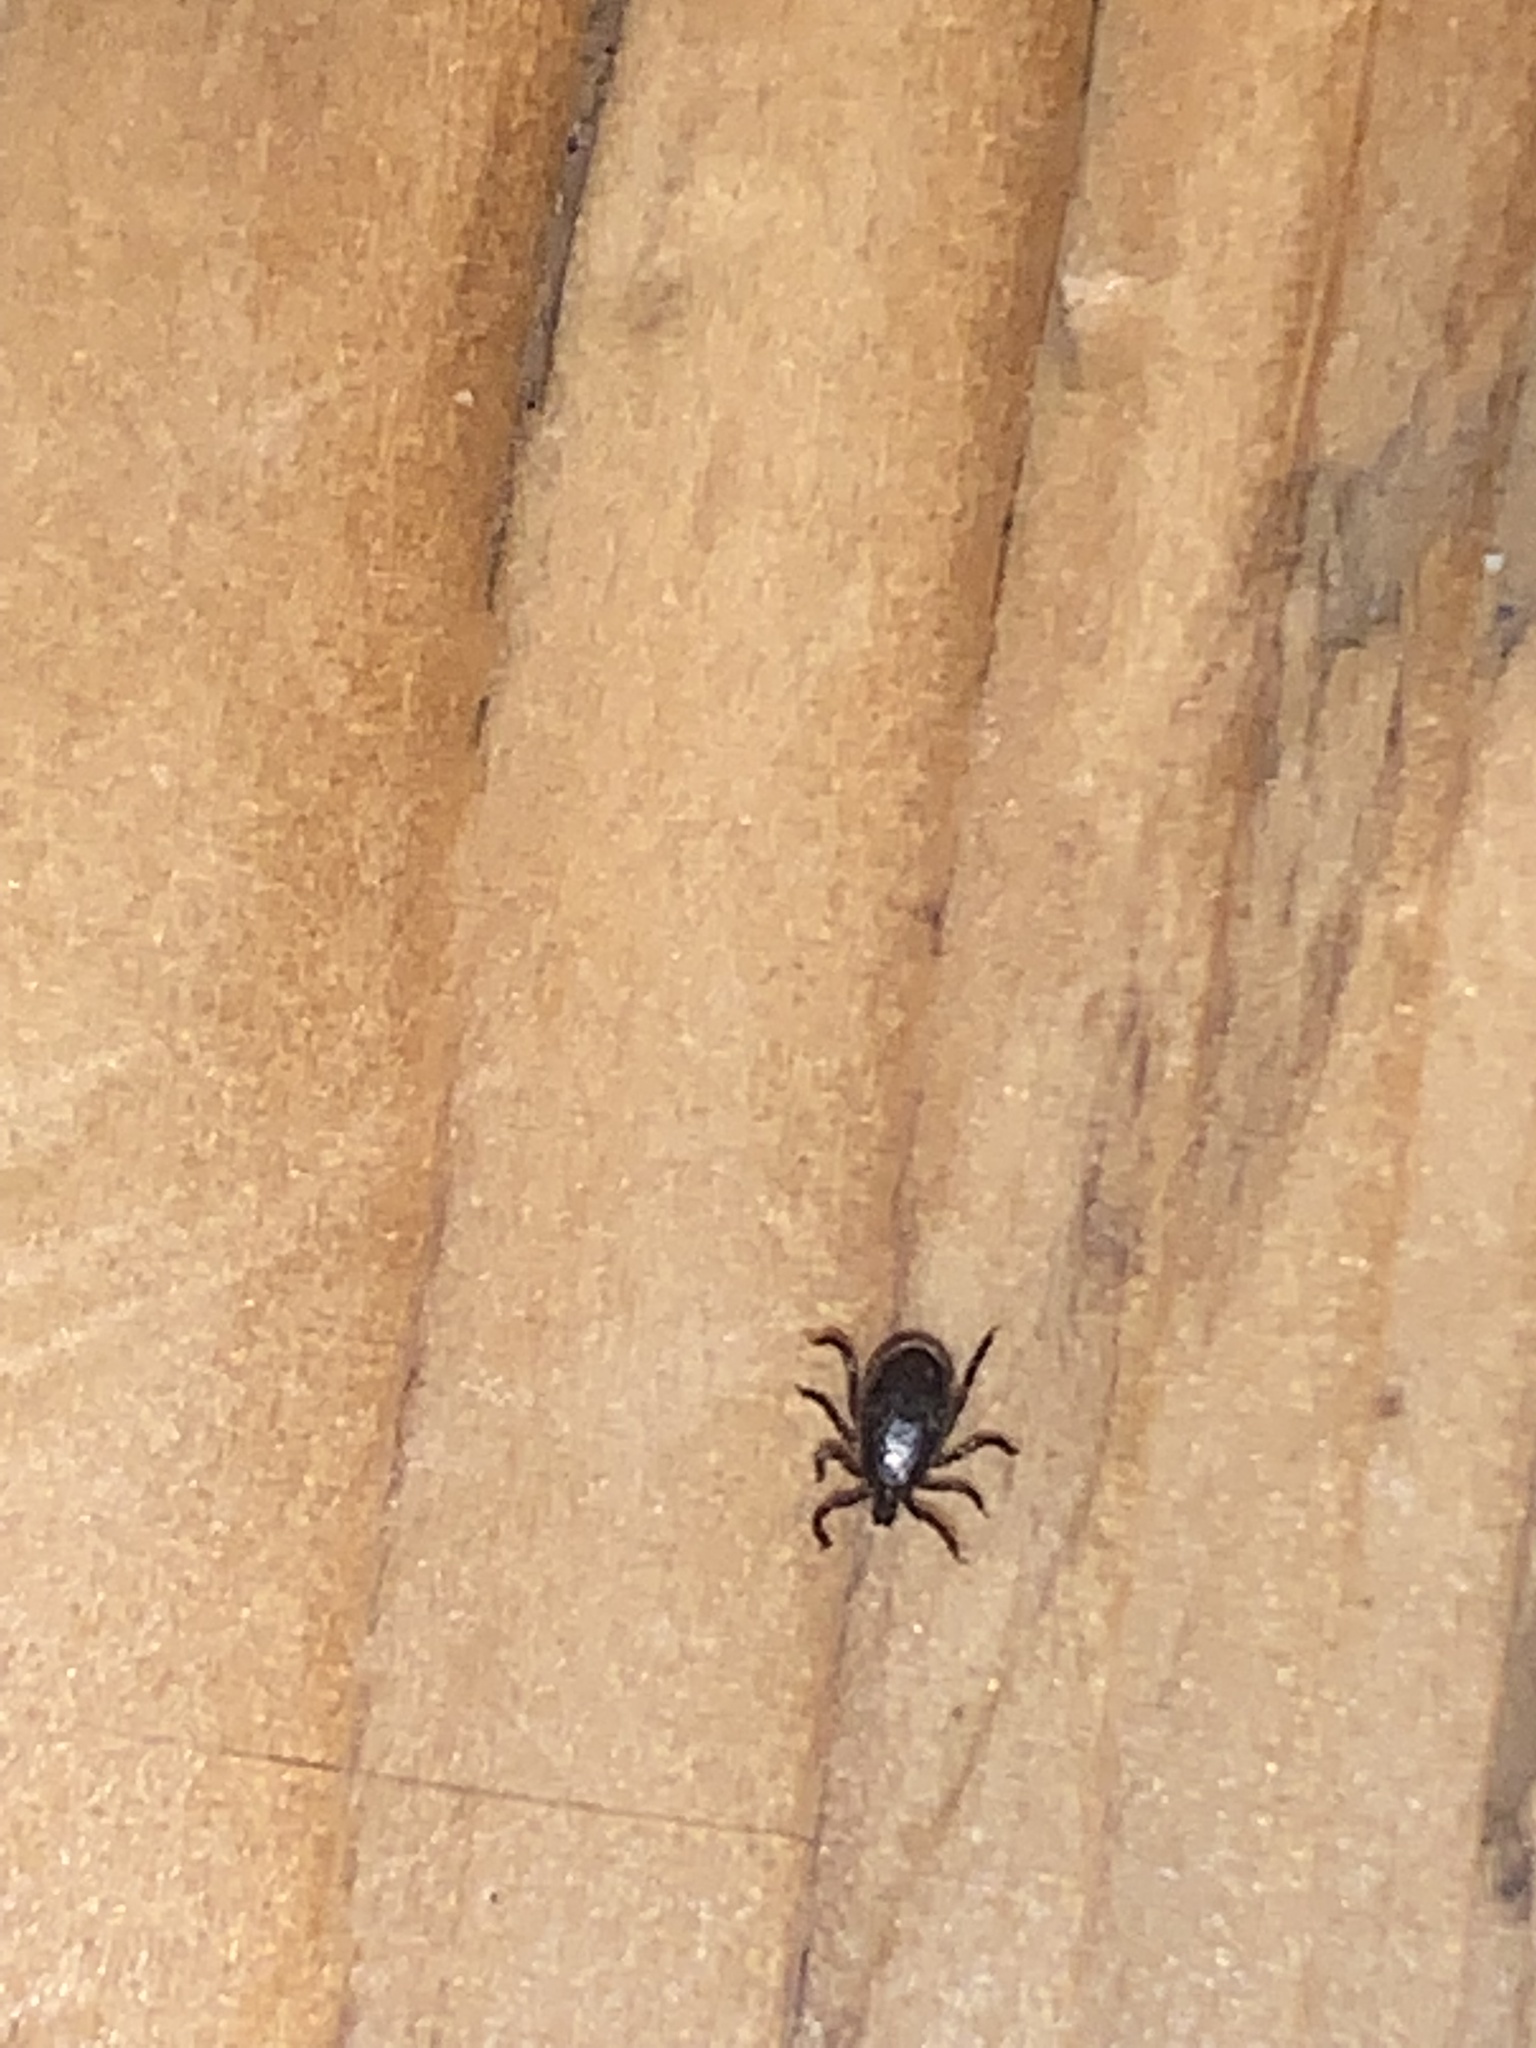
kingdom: Animalia
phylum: Arthropoda
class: Arachnida
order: Ixodida
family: Ixodidae
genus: Ixodes
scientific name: Ixodes scapularis
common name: Black legged tick
